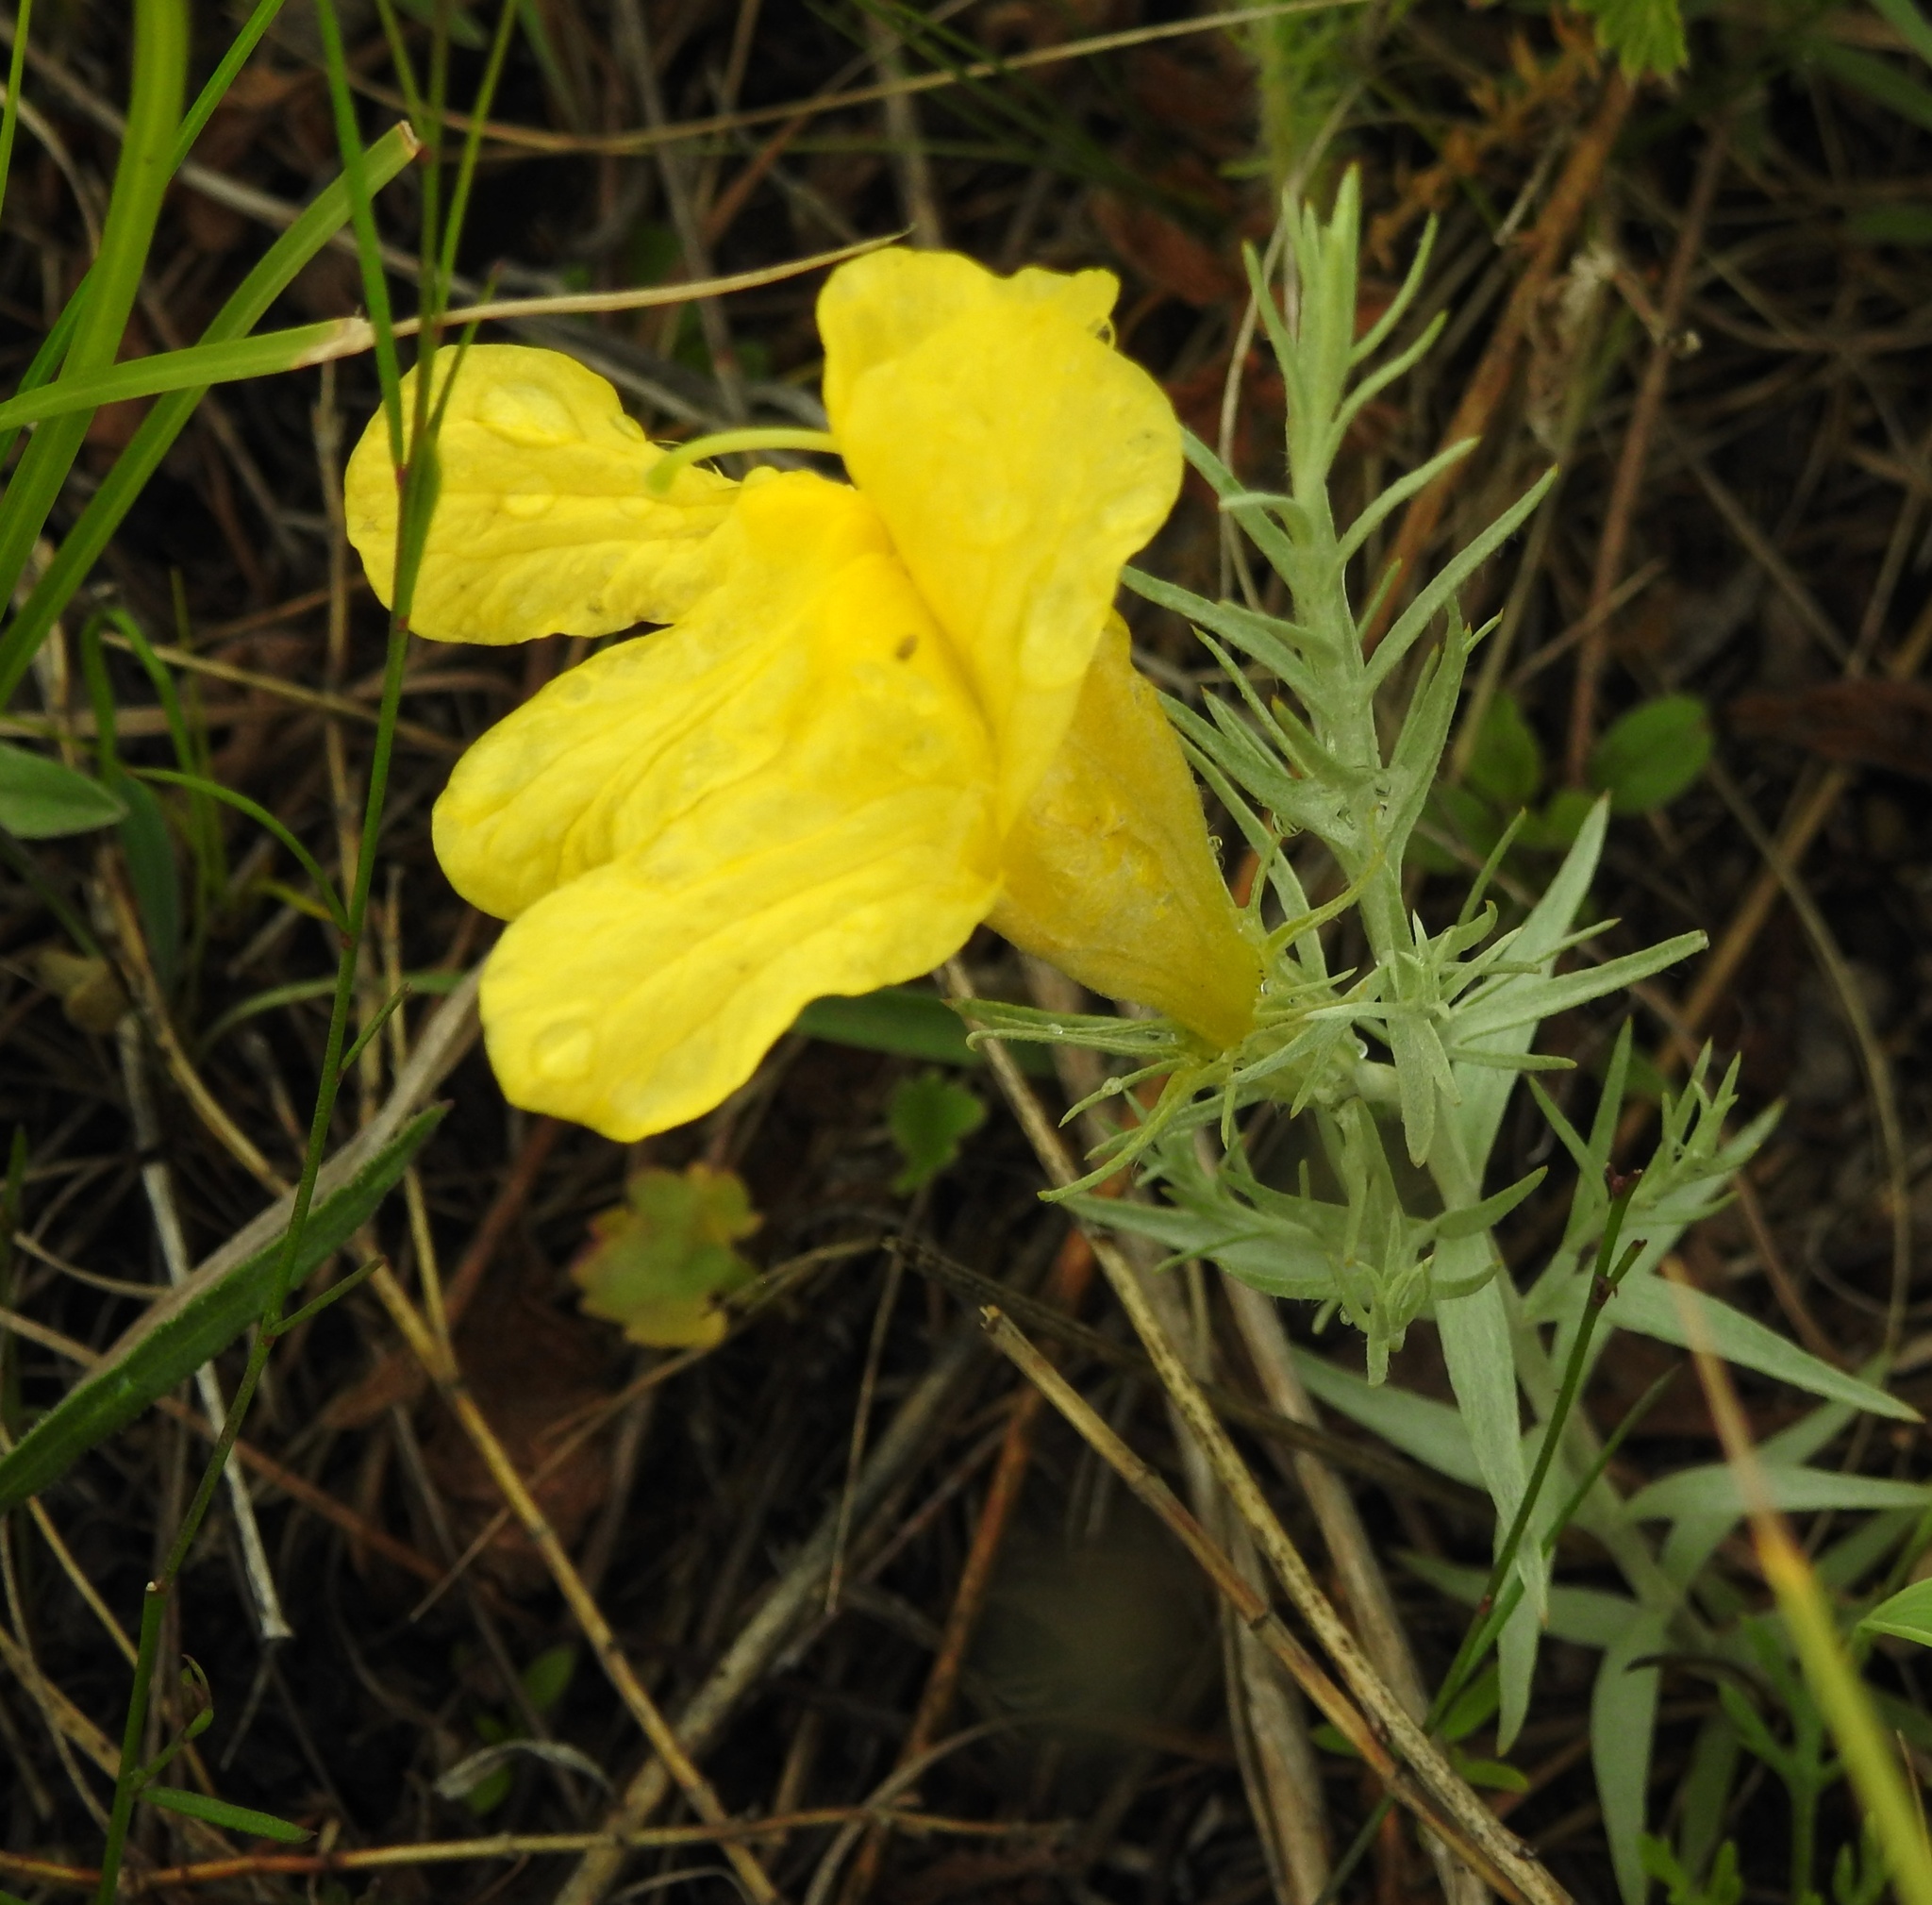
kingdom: Plantae
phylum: Tracheophyta
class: Magnoliopsida
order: Lamiales
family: Orobanchaceae
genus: Cymbaria
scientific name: Cymbaria daurica
